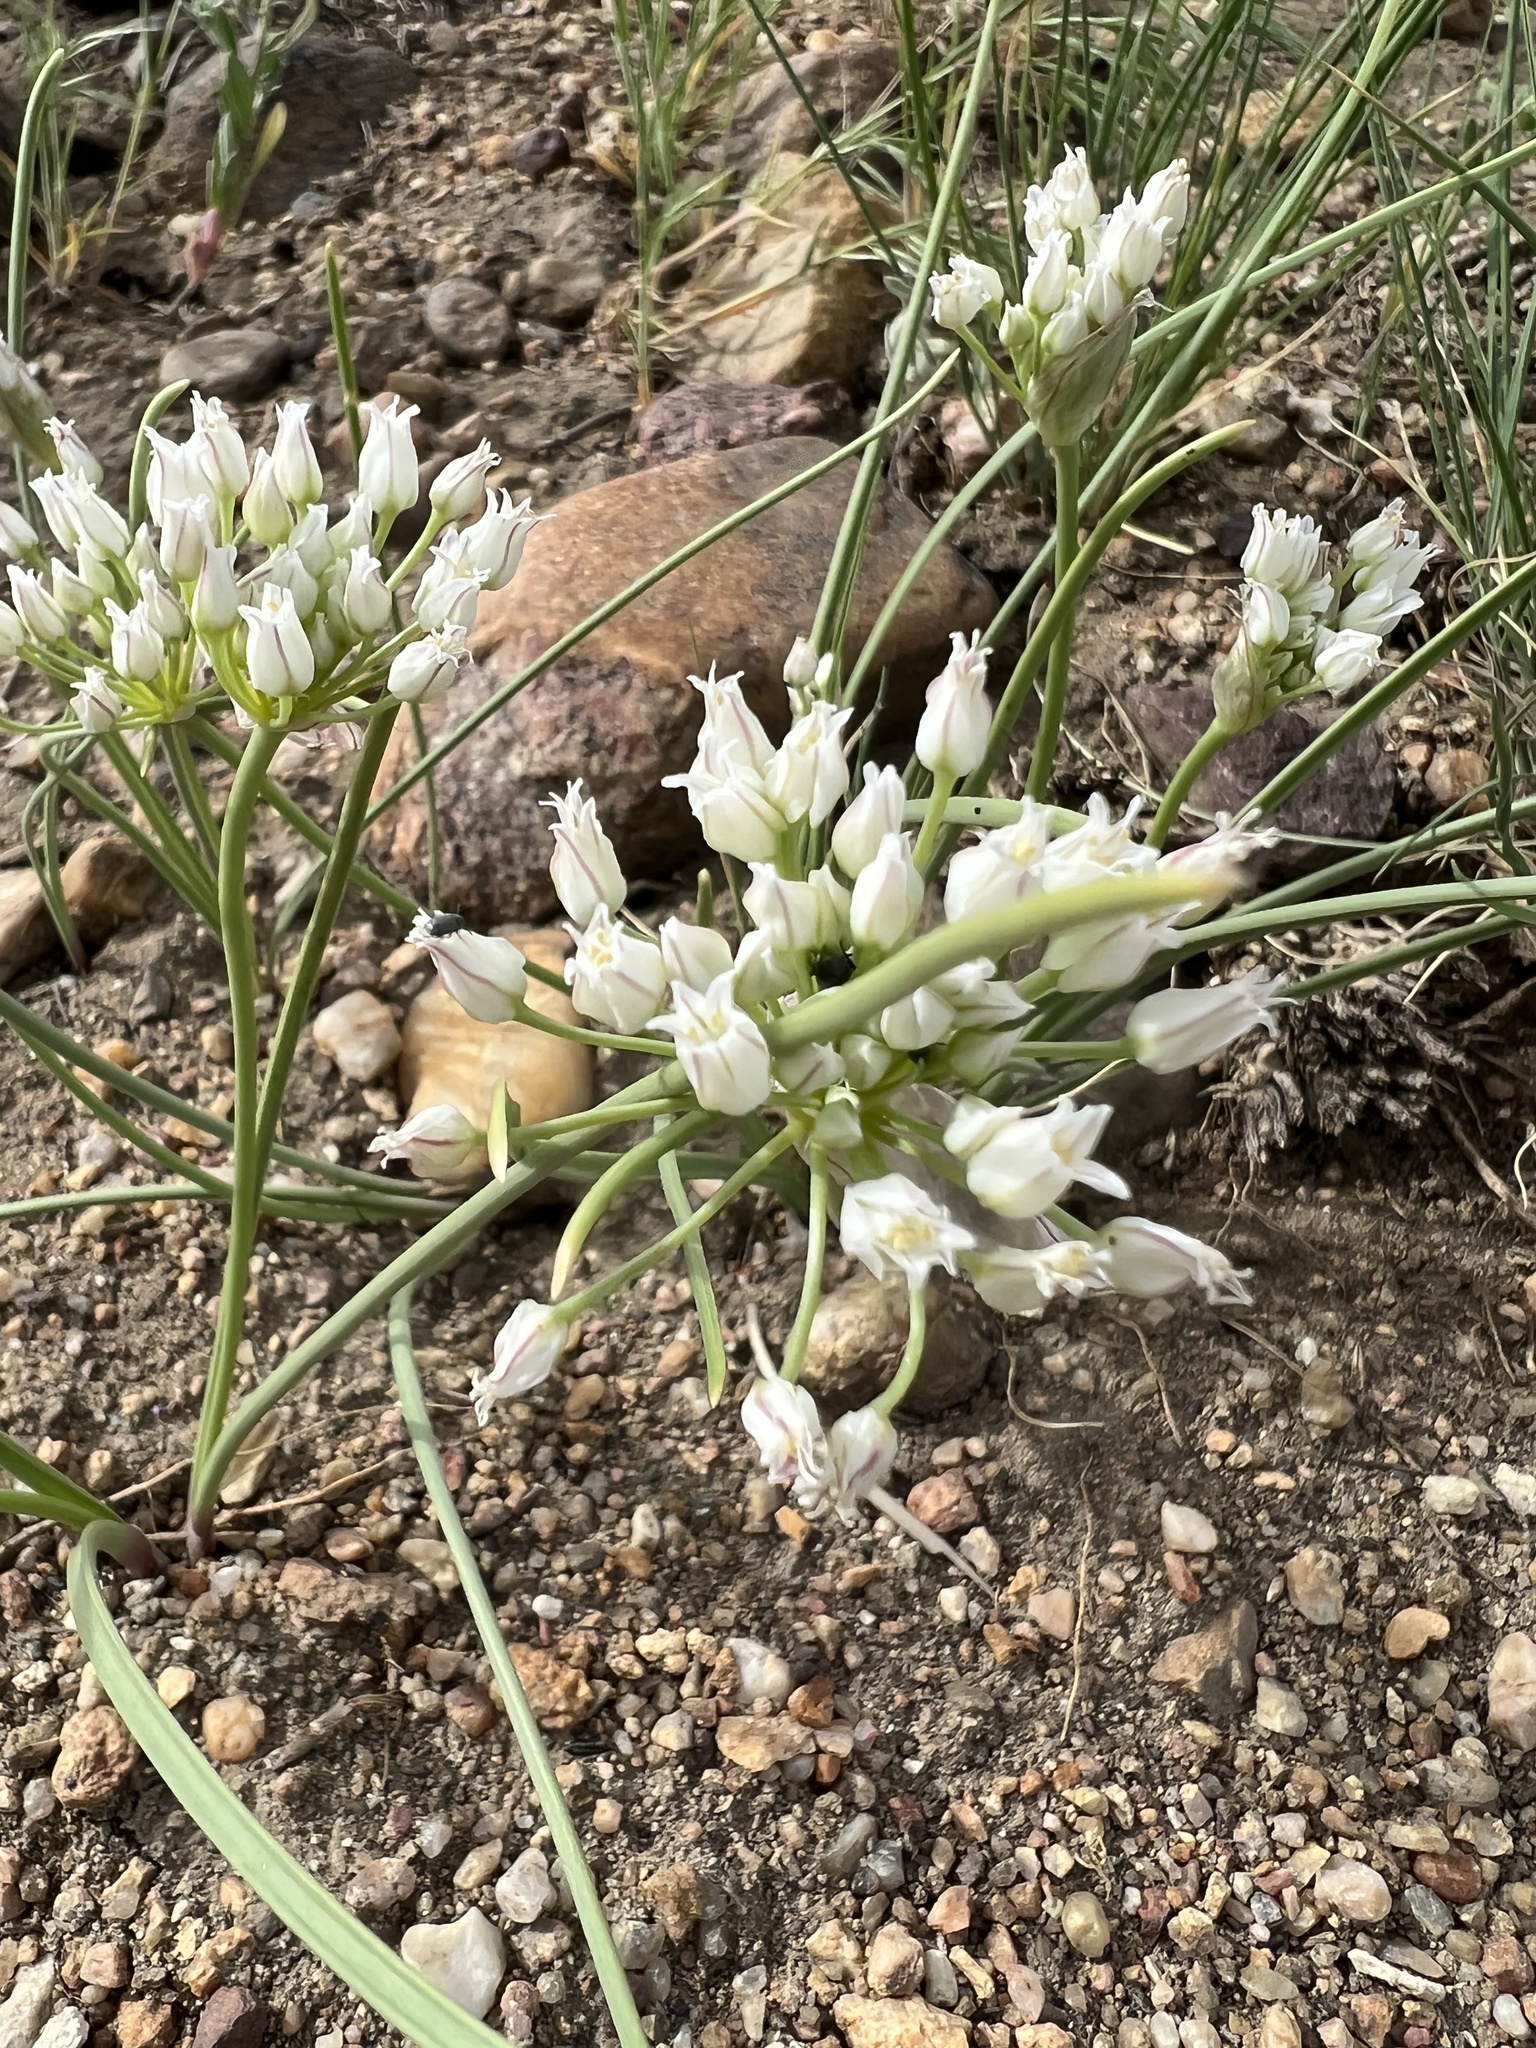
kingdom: Plantae
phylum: Tracheophyta
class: Liliopsida
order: Asparagales
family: Amaryllidaceae
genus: Allium
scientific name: Allium textile
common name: Prairie onion
